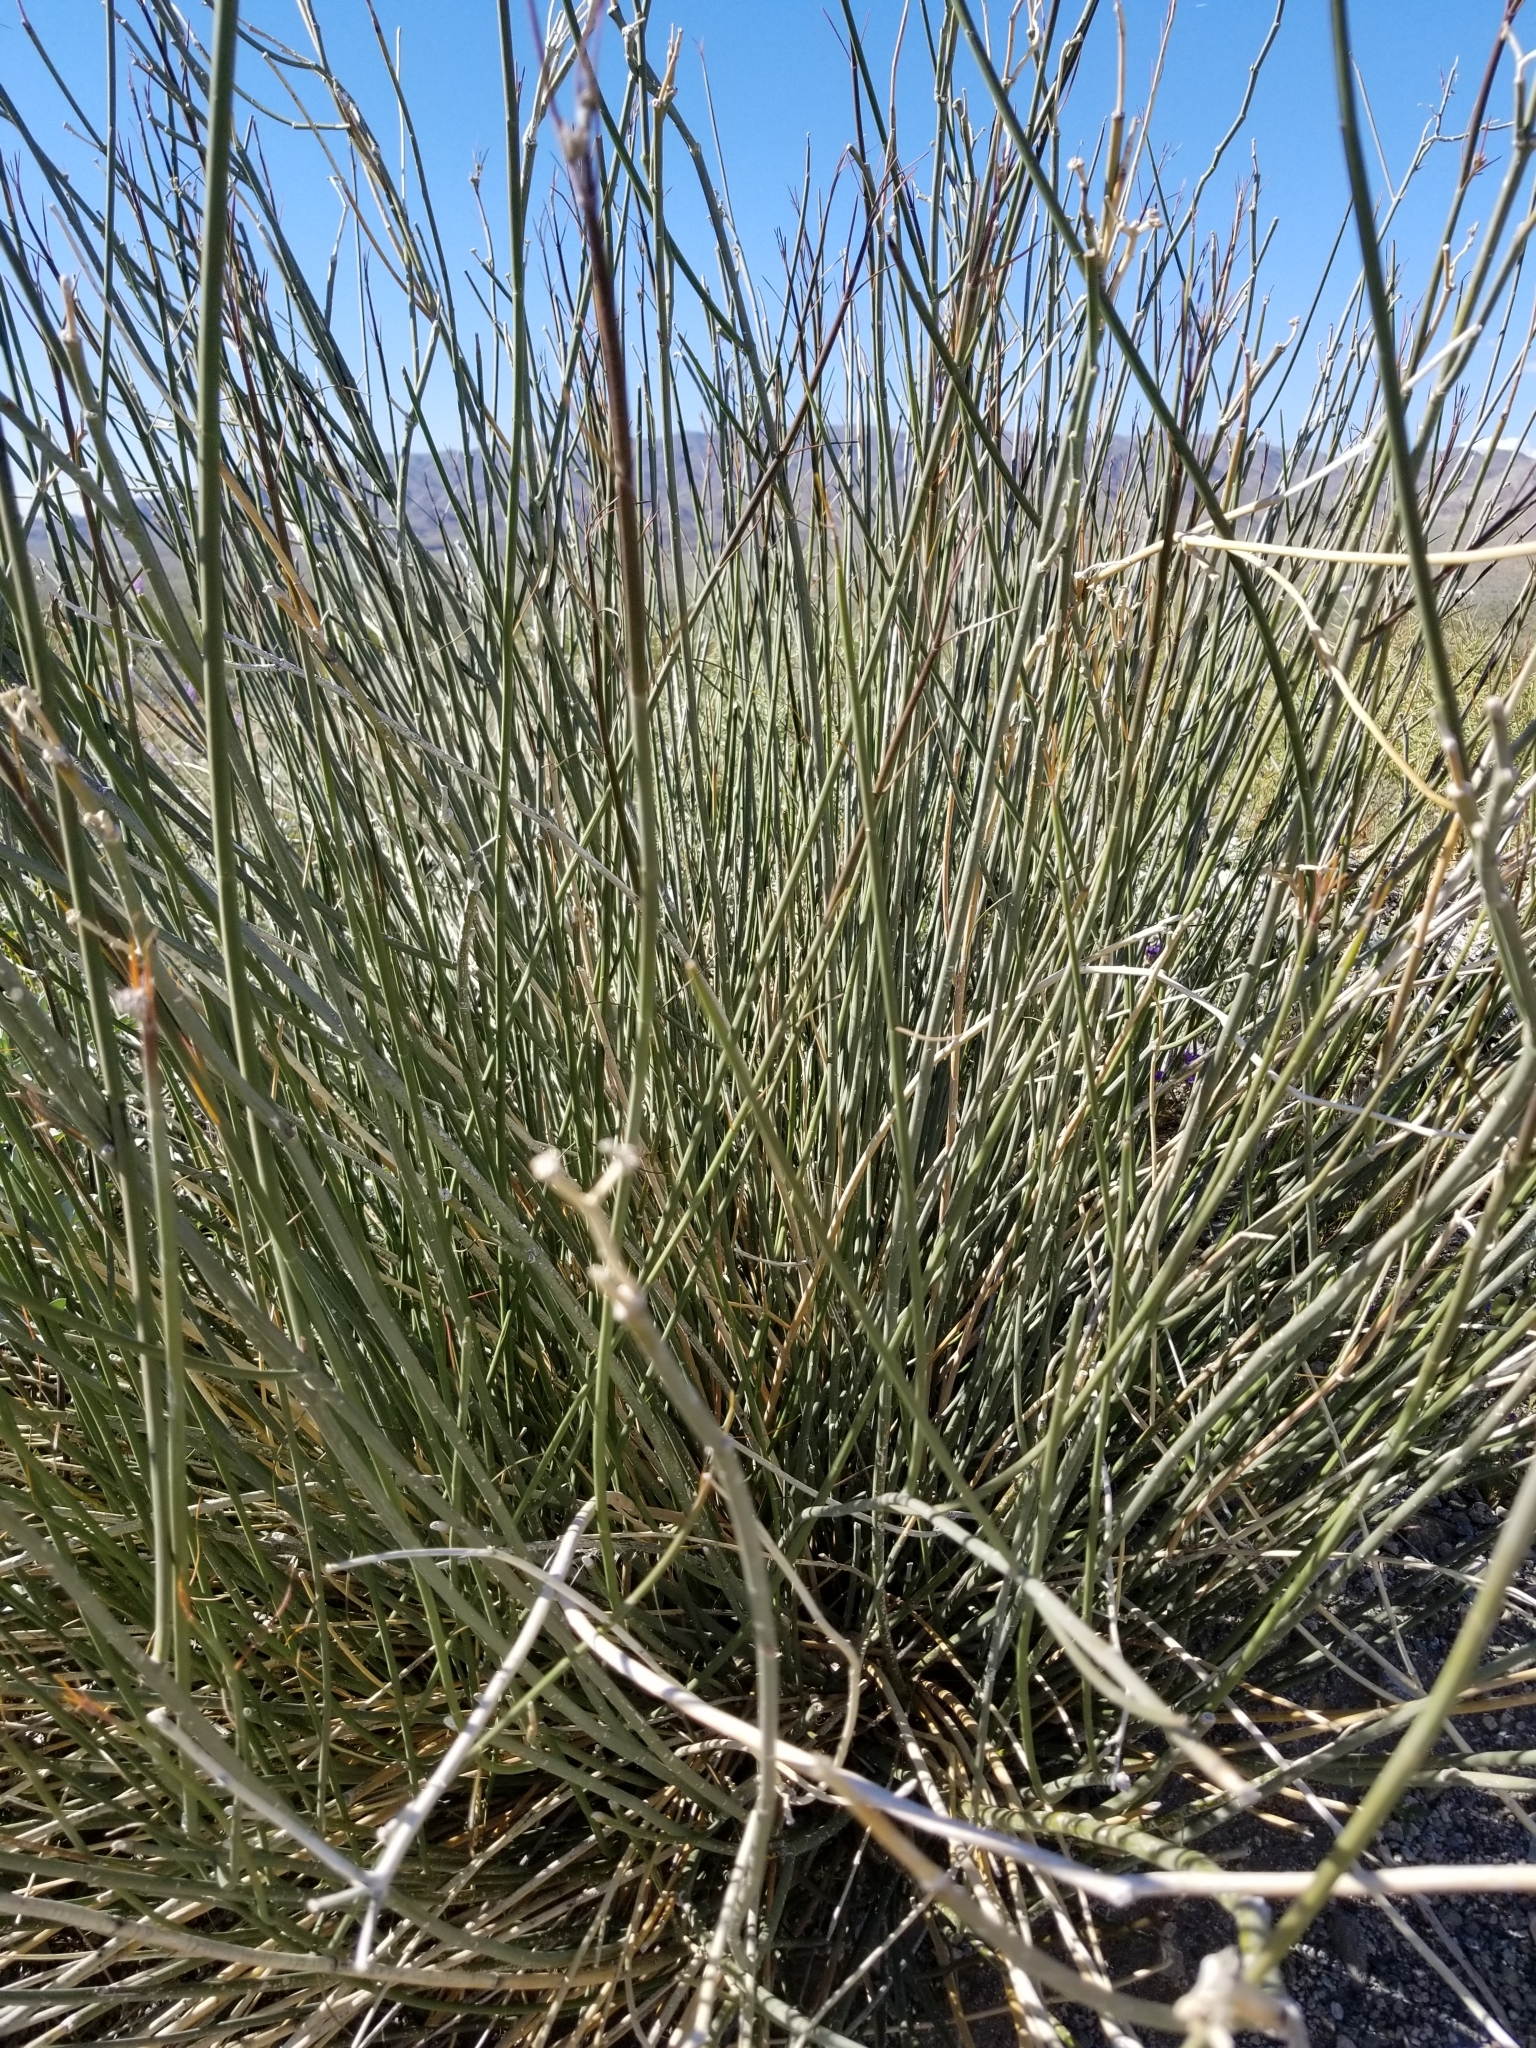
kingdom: Plantae
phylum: Tracheophyta
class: Magnoliopsida
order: Gentianales
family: Apocynaceae
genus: Asclepias
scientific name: Asclepias subulata
